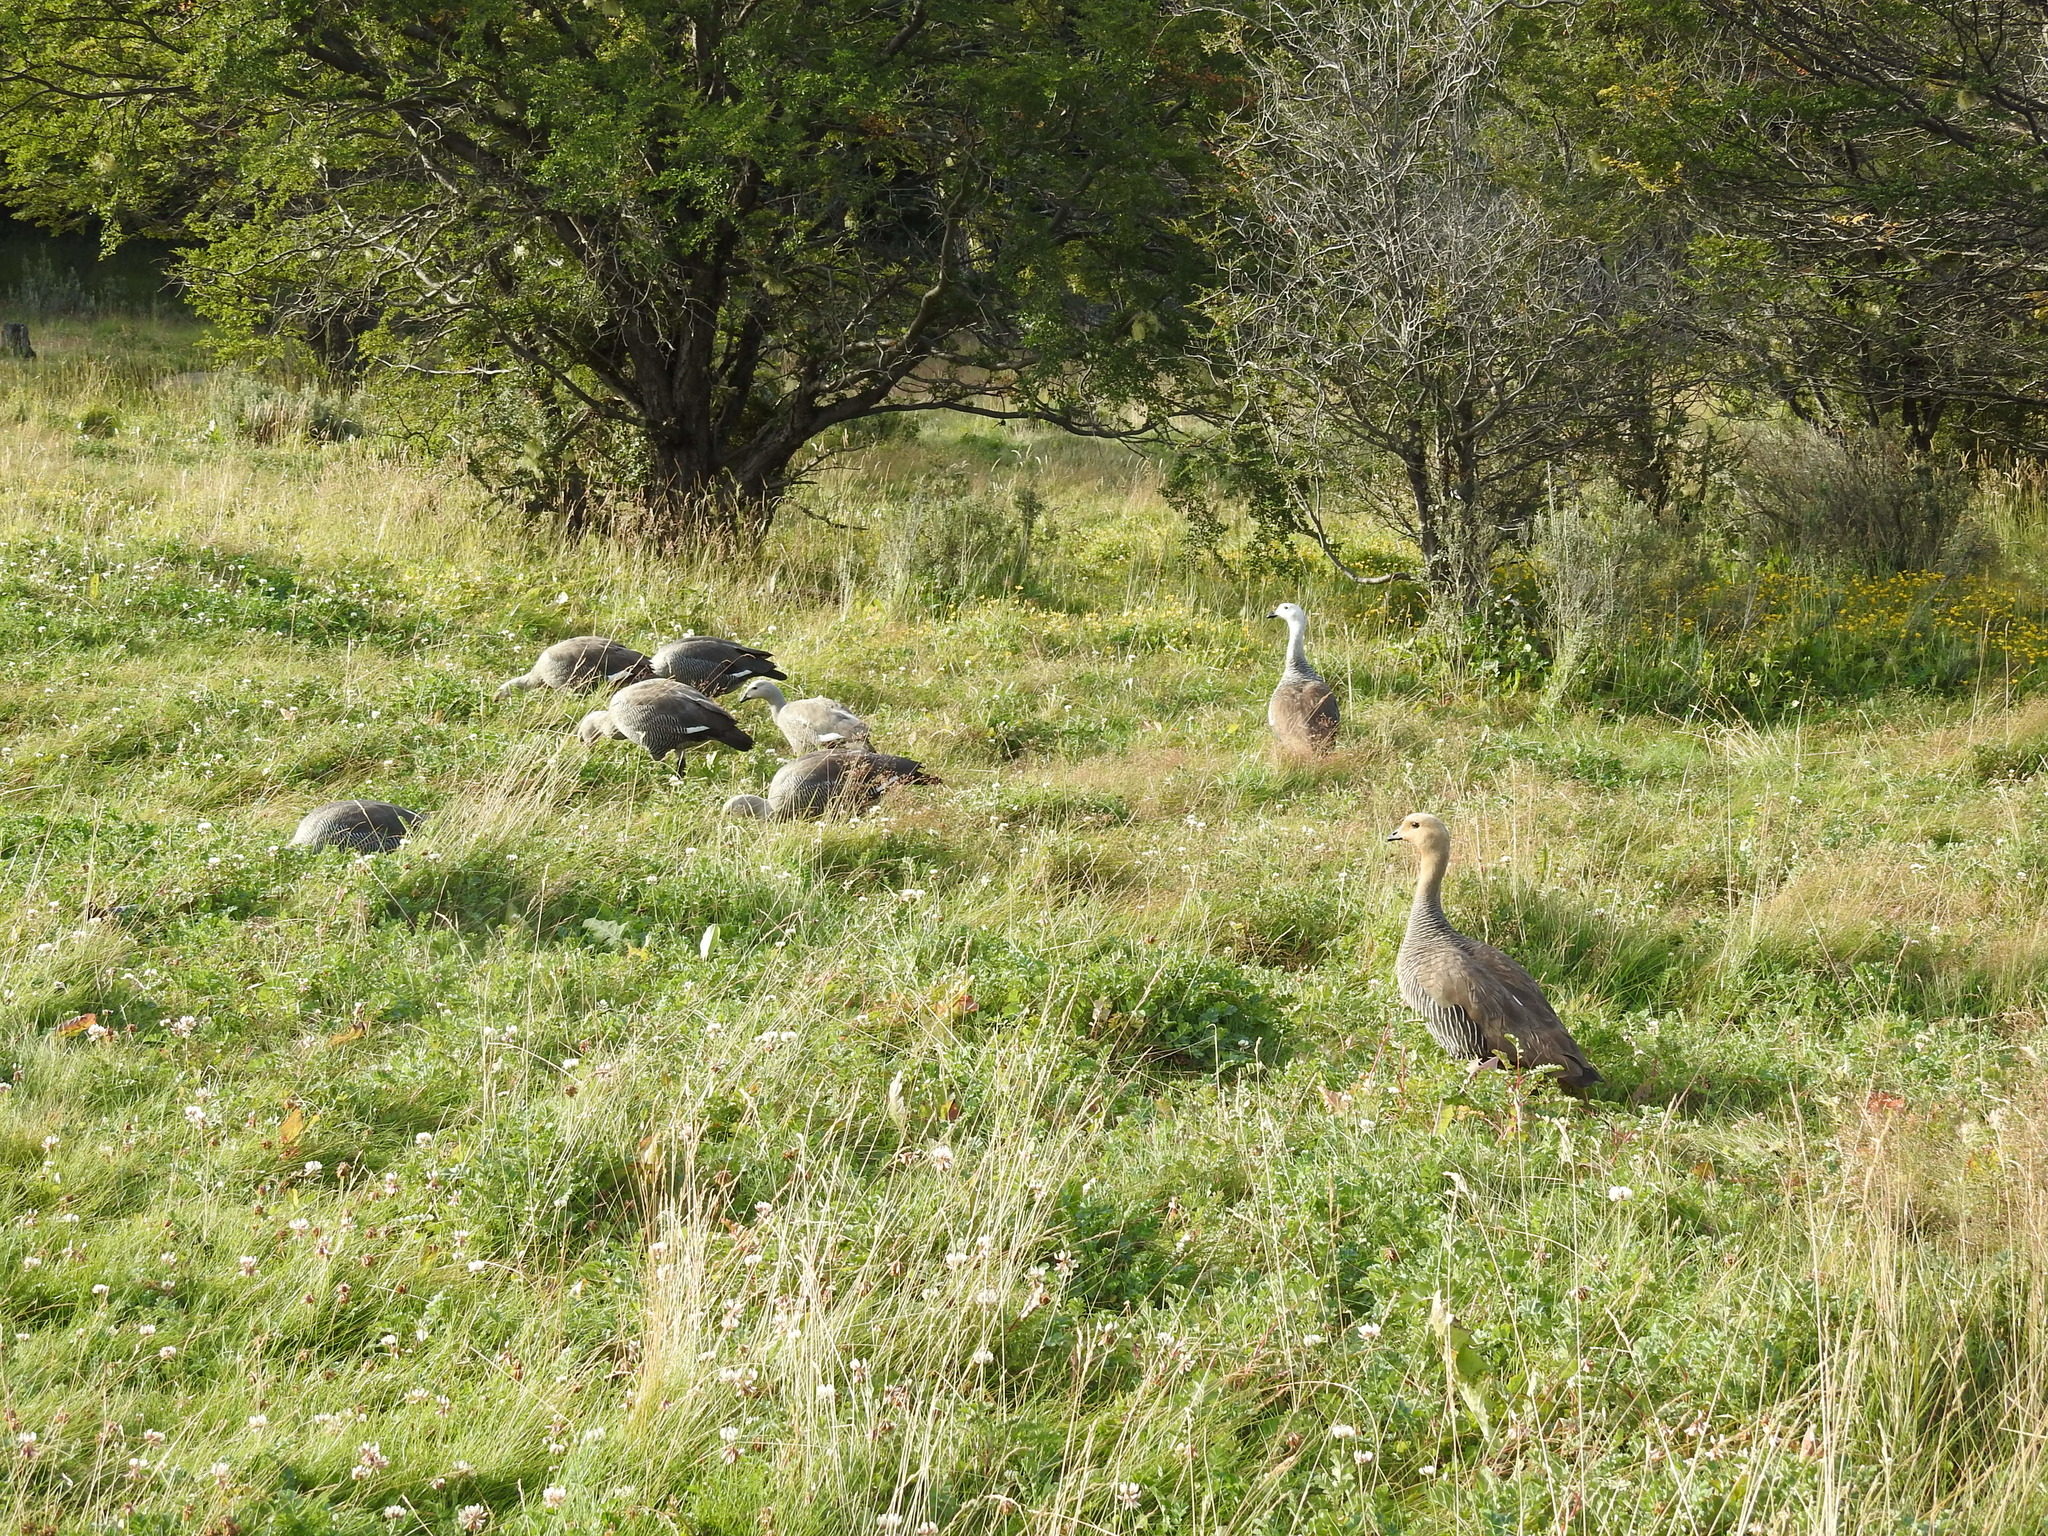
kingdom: Animalia
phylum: Chordata
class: Aves
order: Anseriformes
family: Anatidae
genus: Chloephaga
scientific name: Chloephaga picta
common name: Upland goose
